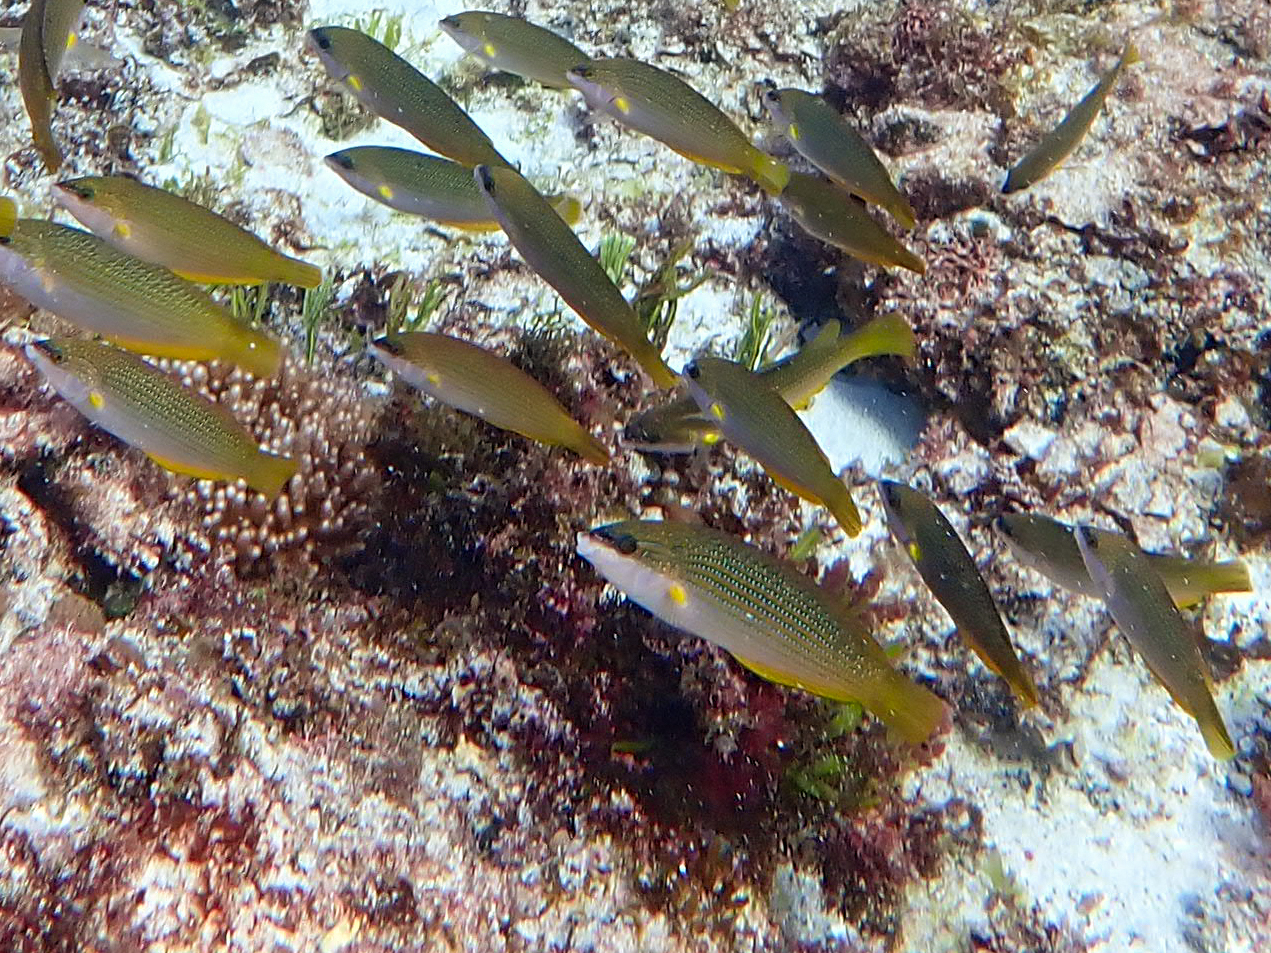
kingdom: Animalia
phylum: Chordata
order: Perciformes
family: Labridae
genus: Anampses
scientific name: Anampses elegans
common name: Elegant wrasse
